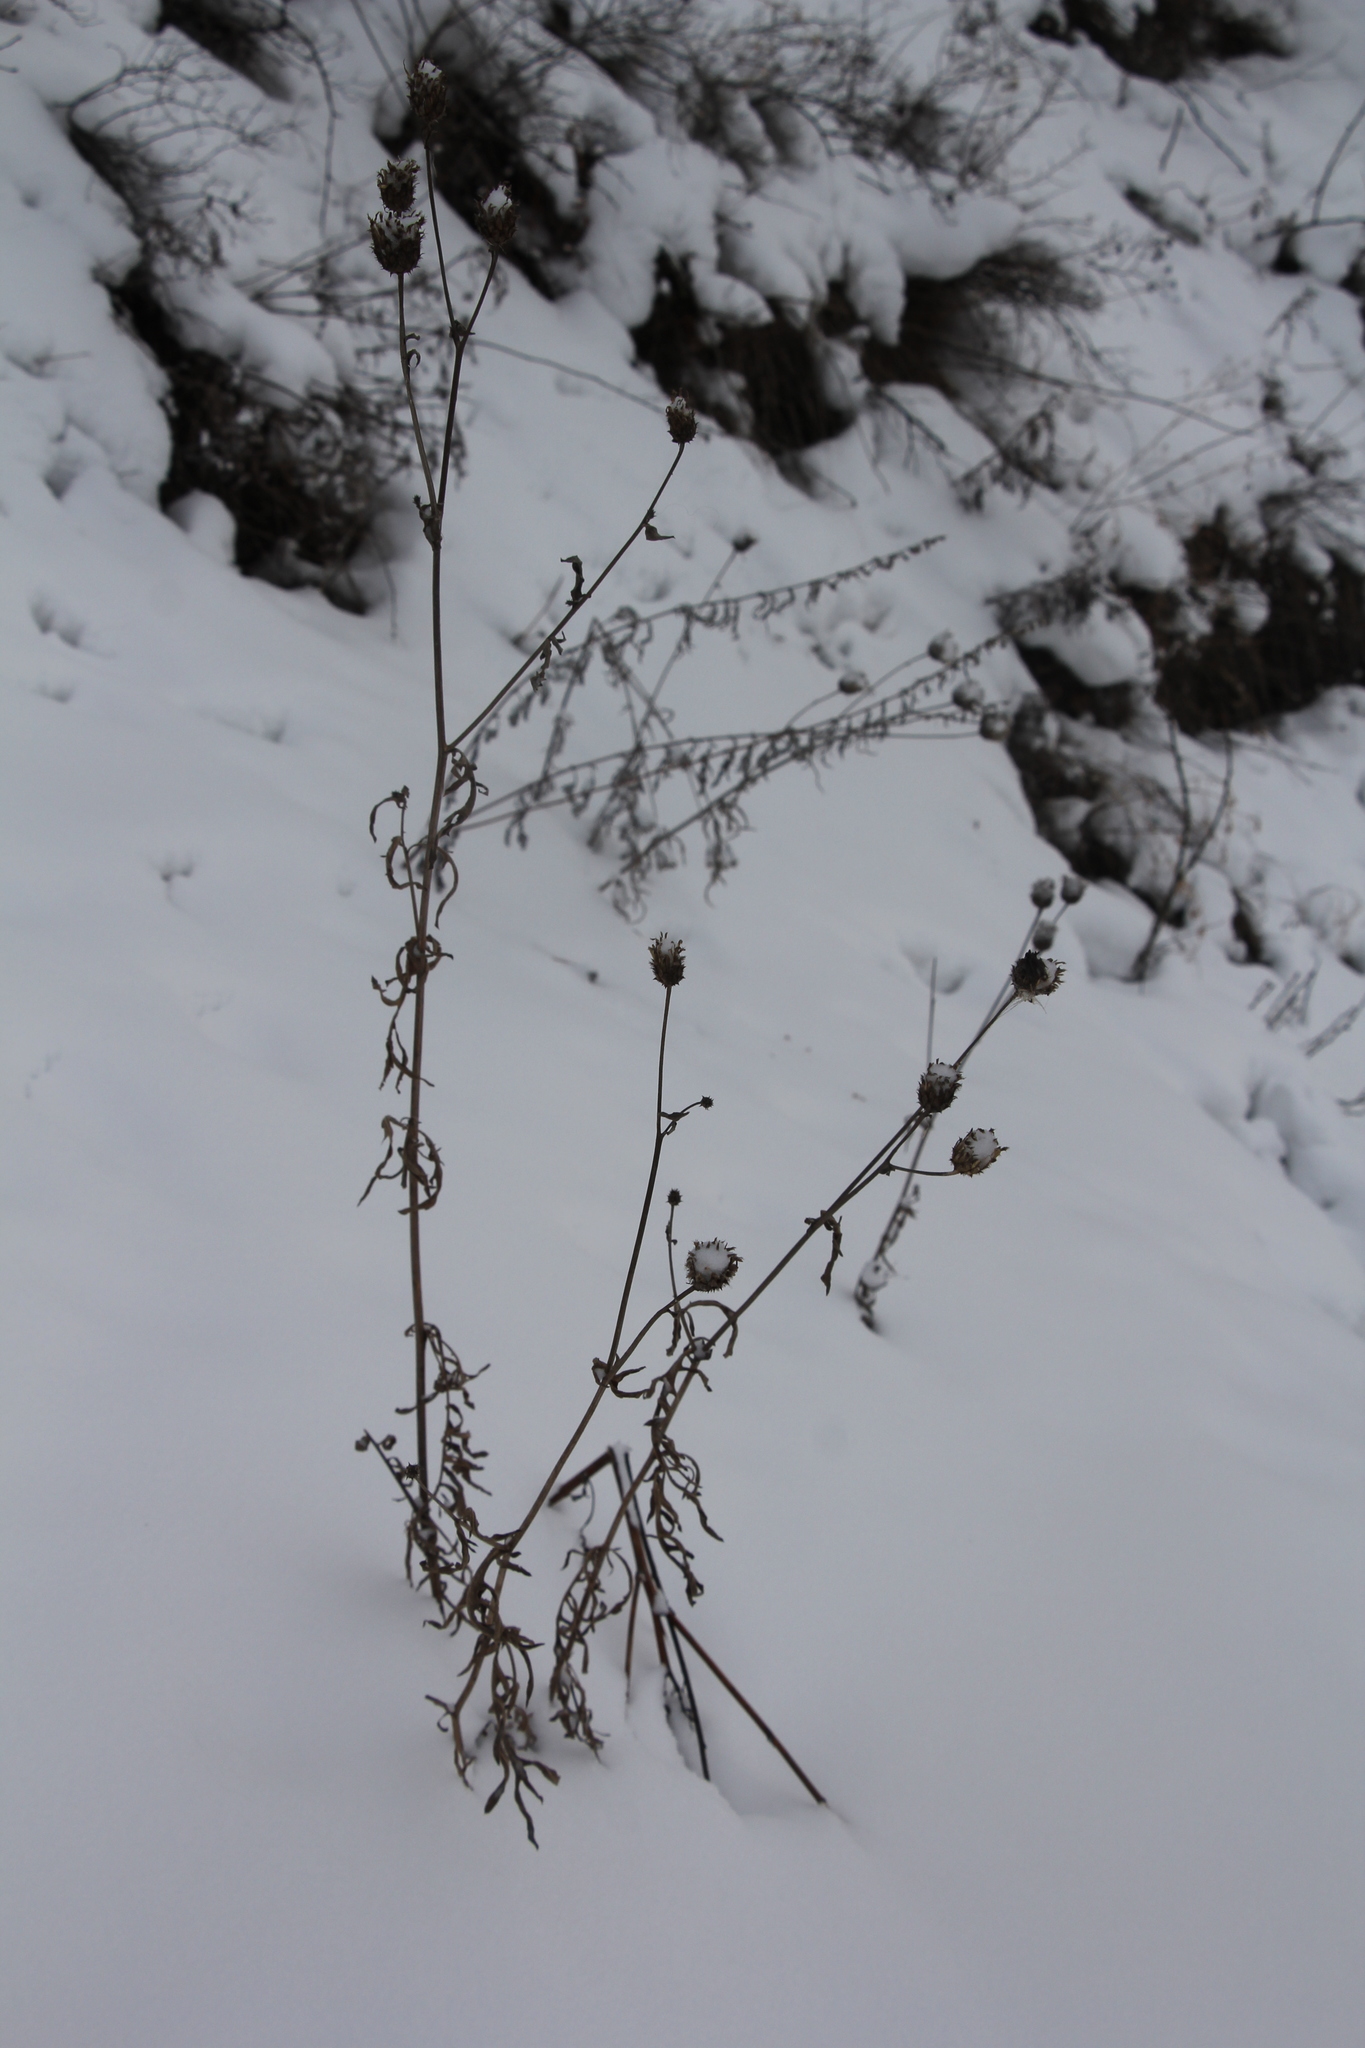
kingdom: Plantae
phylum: Tracheophyta
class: Magnoliopsida
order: Asterales
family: Asteraceae
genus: Centaurea
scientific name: Centaurea scabiosa
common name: Greater knapweed
